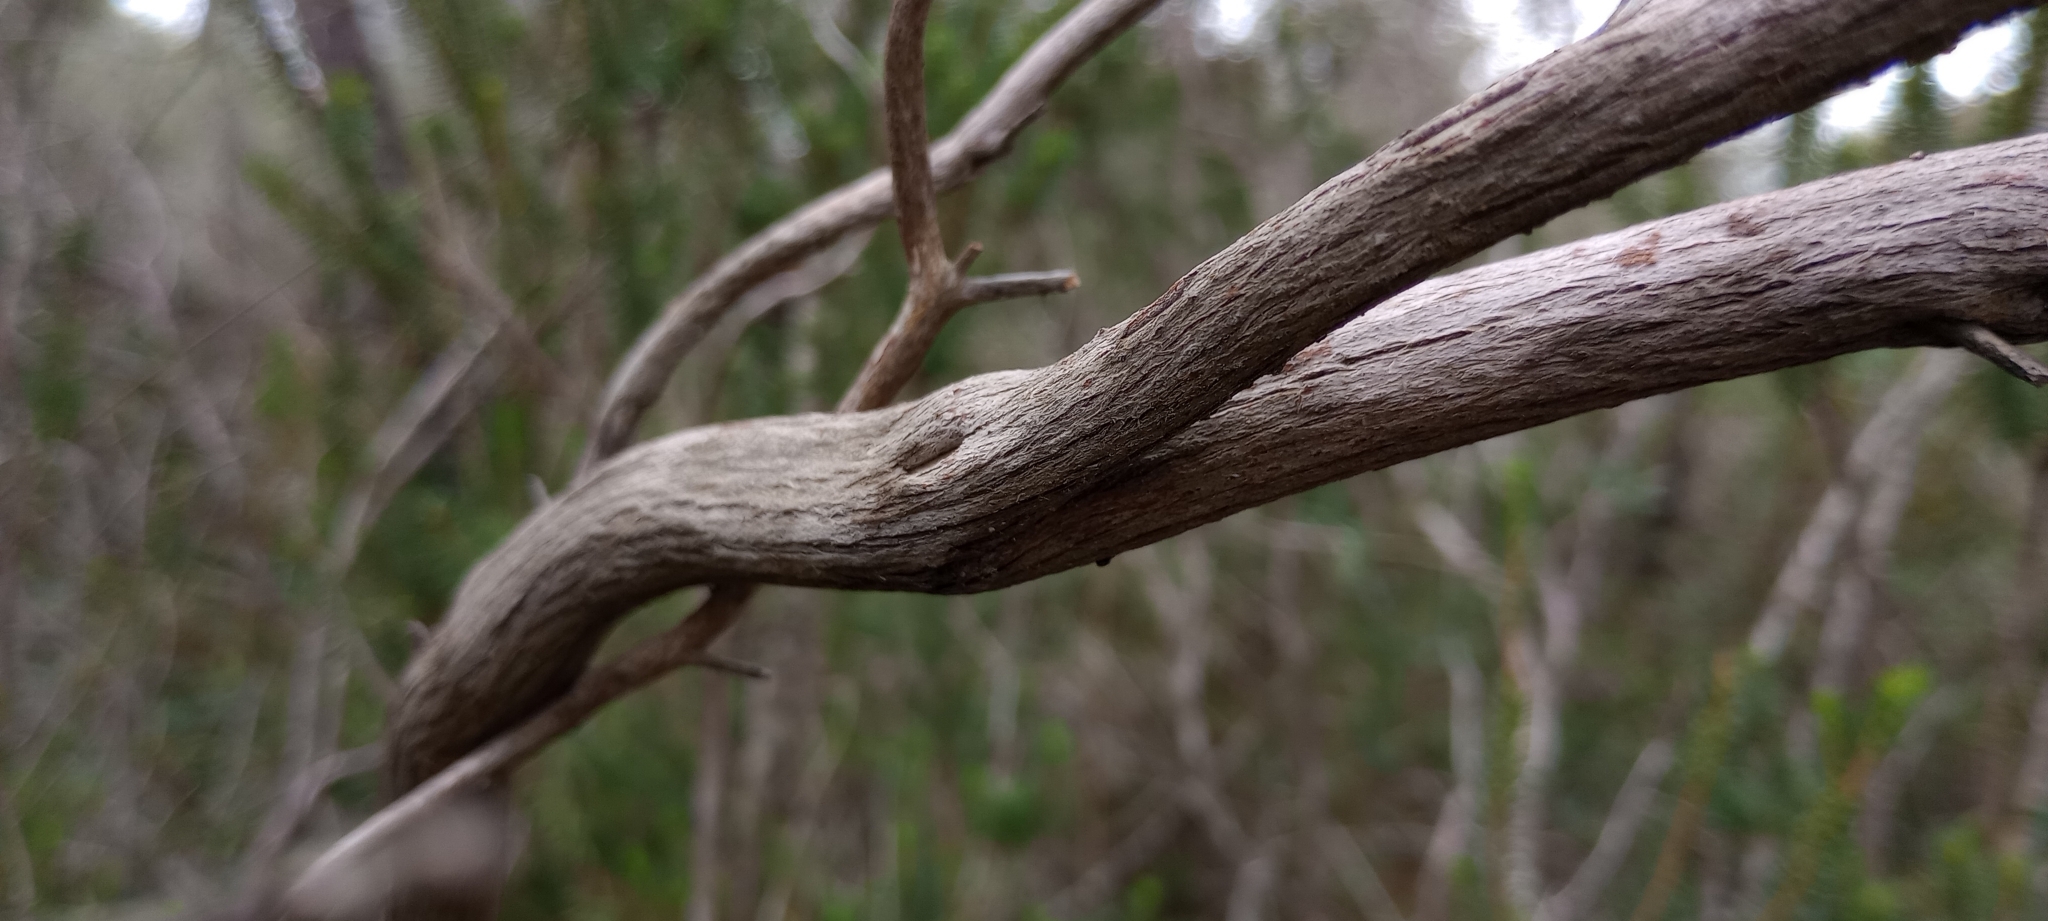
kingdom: Plantae
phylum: Tracheophyta
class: Magnoliopsida
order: Ericales
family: Ericaceae
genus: Erica
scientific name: Erica multiflora
